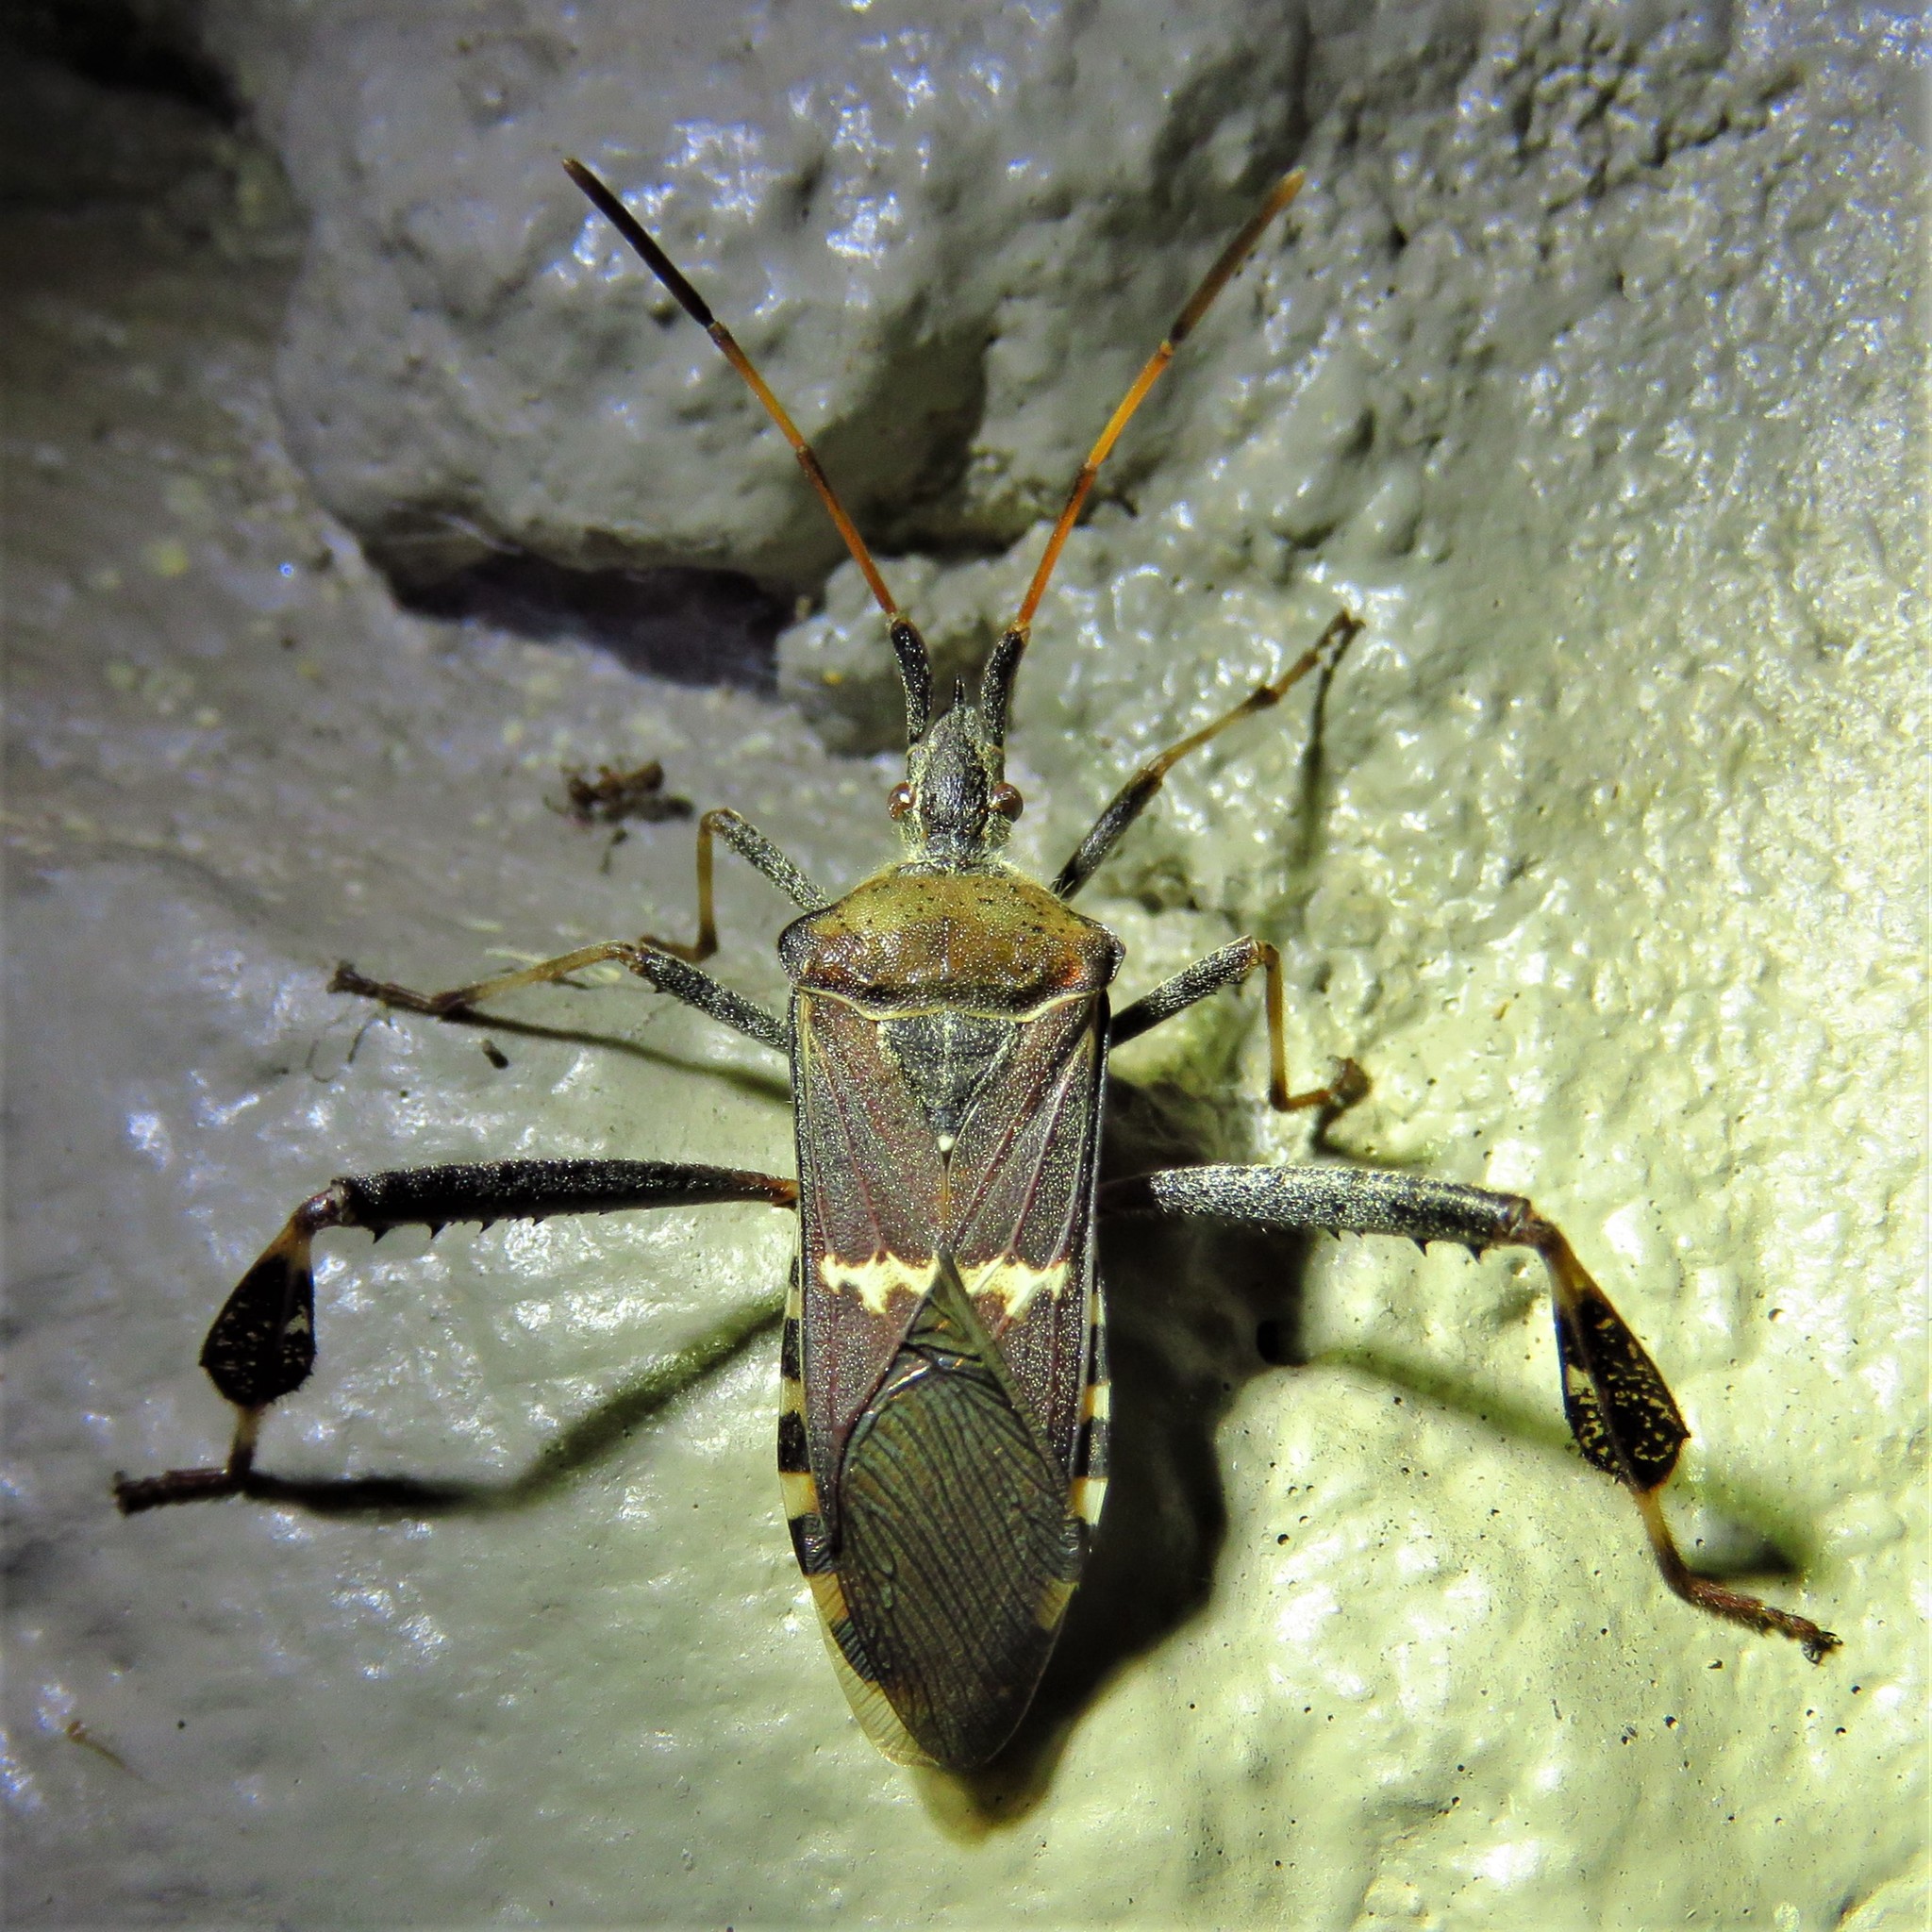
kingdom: Animalia
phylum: Arthropoda
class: Insecta
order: Hemiptera
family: Coreidae
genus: Leptoglossus
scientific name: Leptoglossus clypealis
